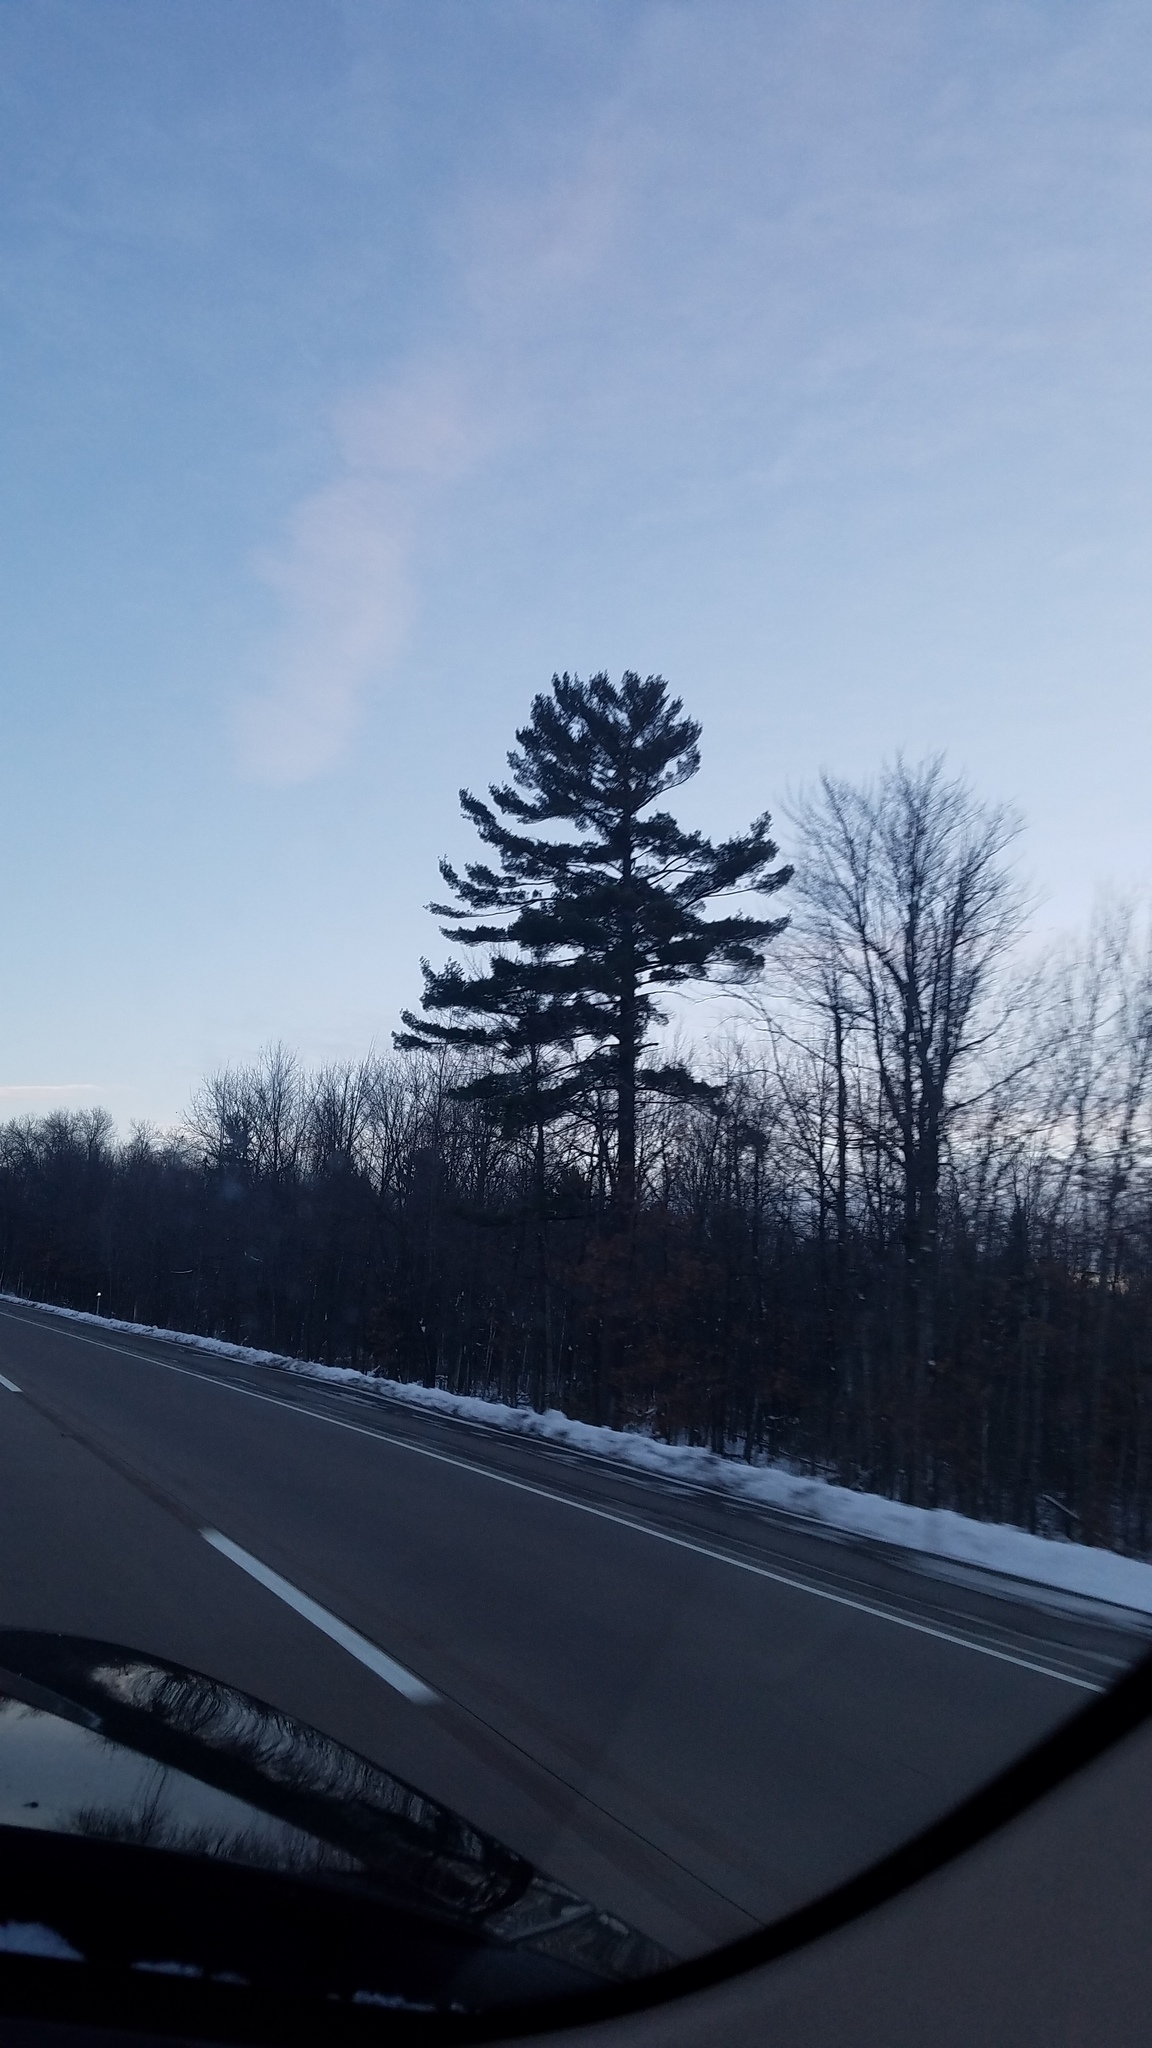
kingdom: Plantae
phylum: Tracheophyta
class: Pinopsida
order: Pinales
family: Pinaceae
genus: Pinus
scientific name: Pinus strobus
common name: Weymouth pine
